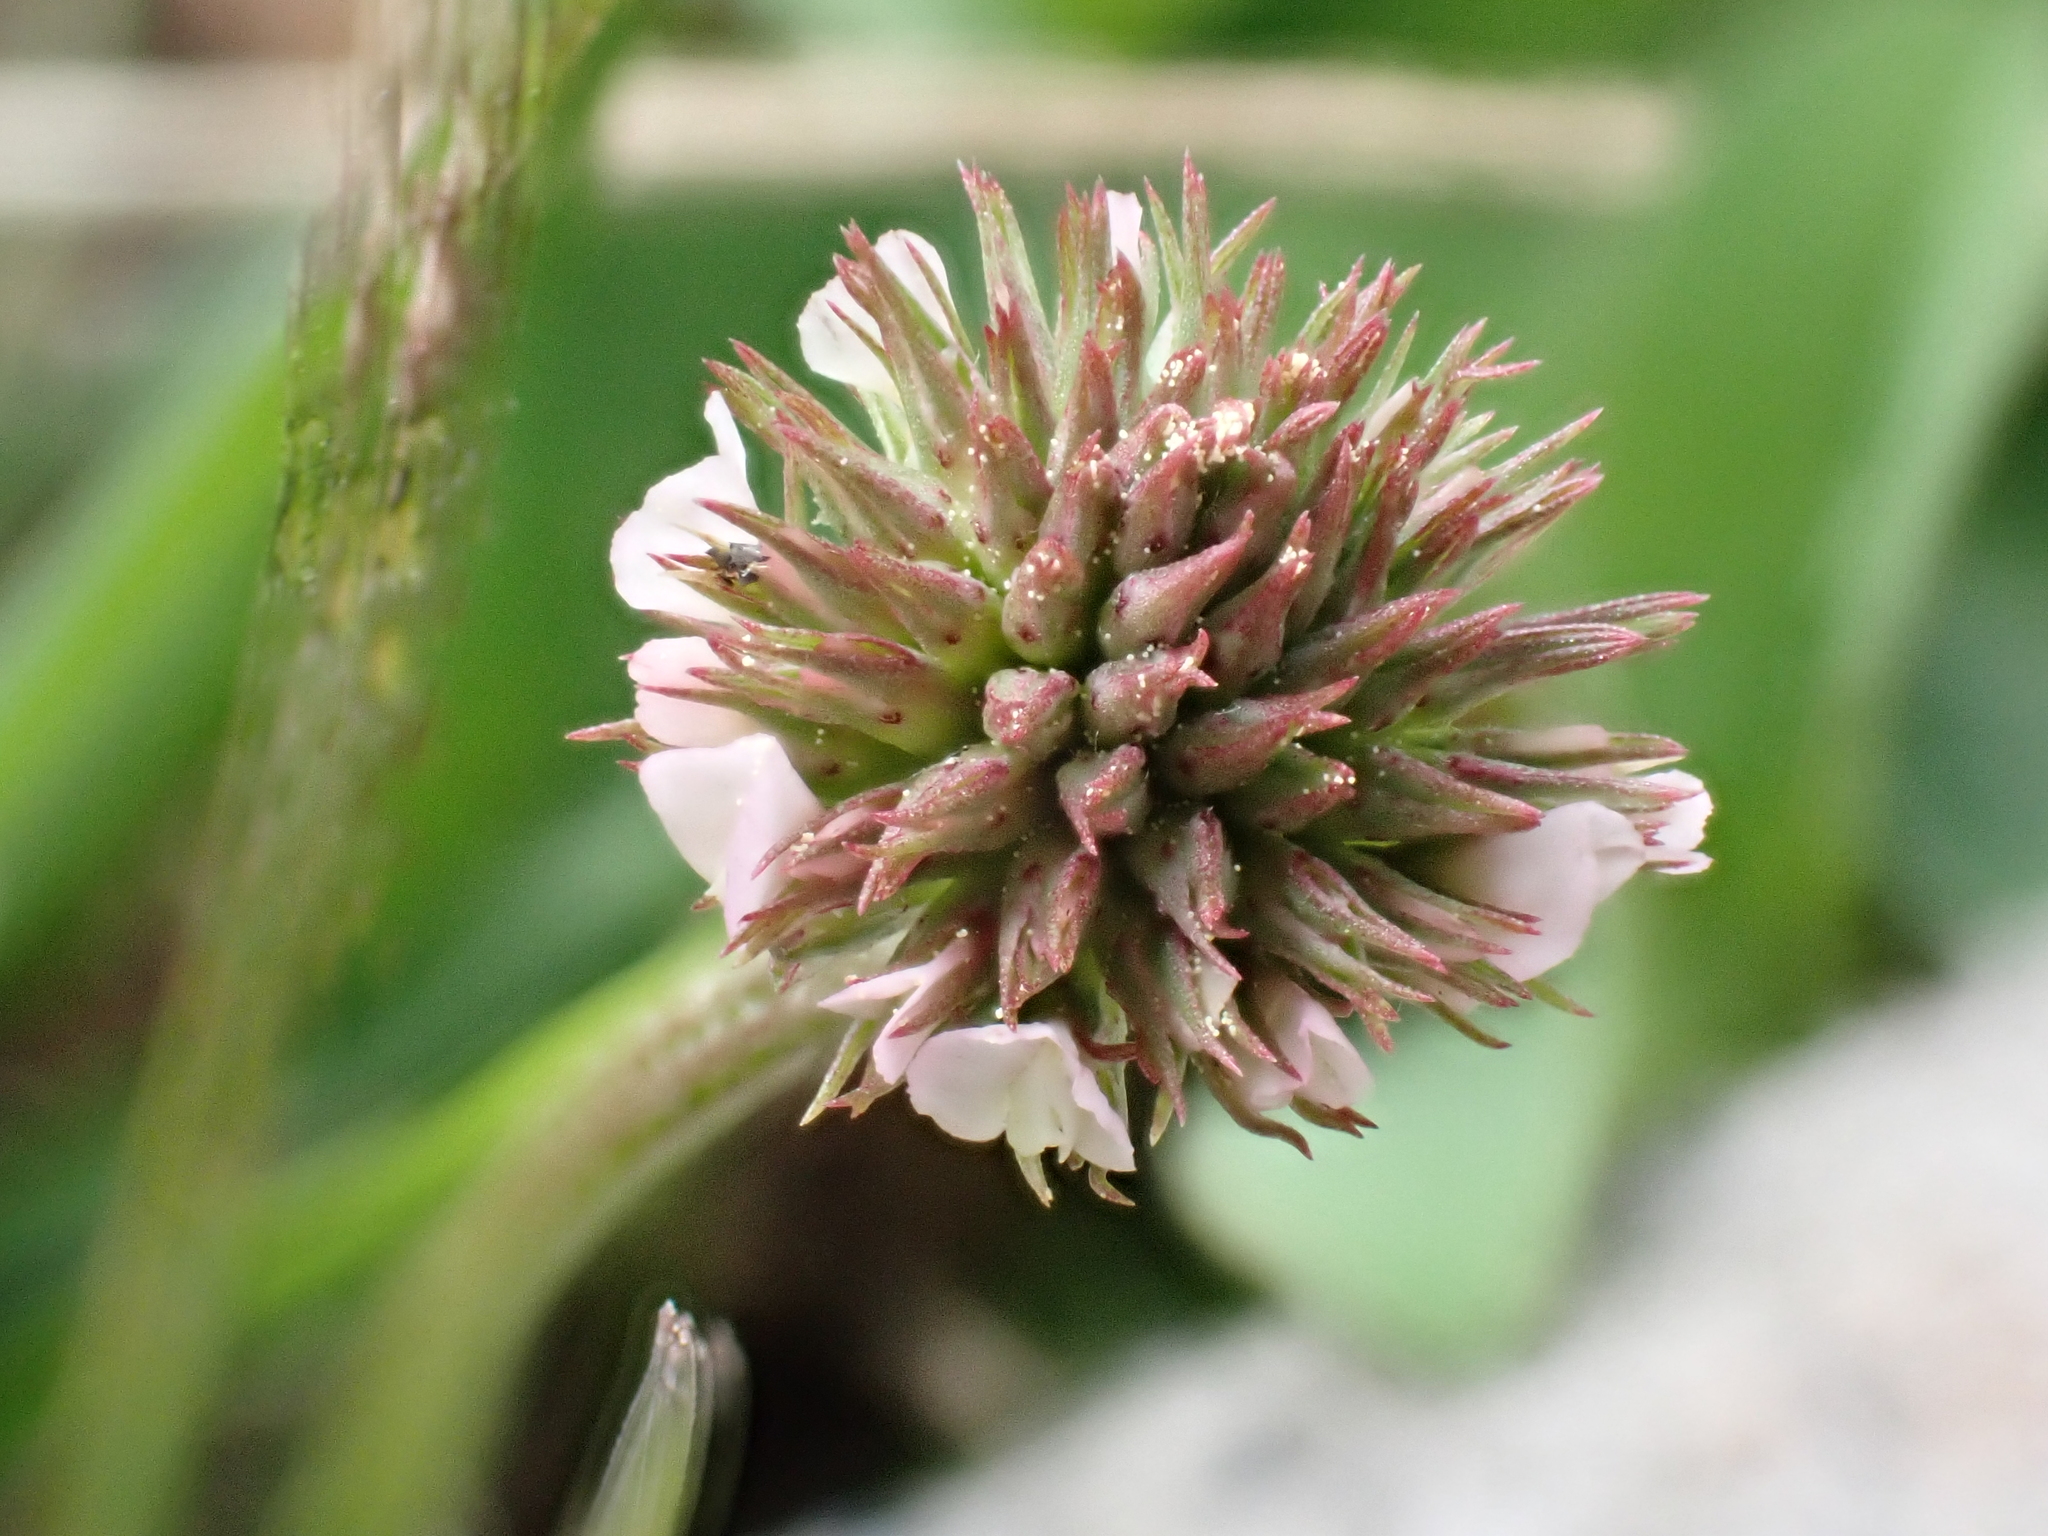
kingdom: Plantae
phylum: Tracheophyta
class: Magnoliopsida
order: Fabales
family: Fabaceae
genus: Trifolium
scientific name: Trifolium repens
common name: White clover
